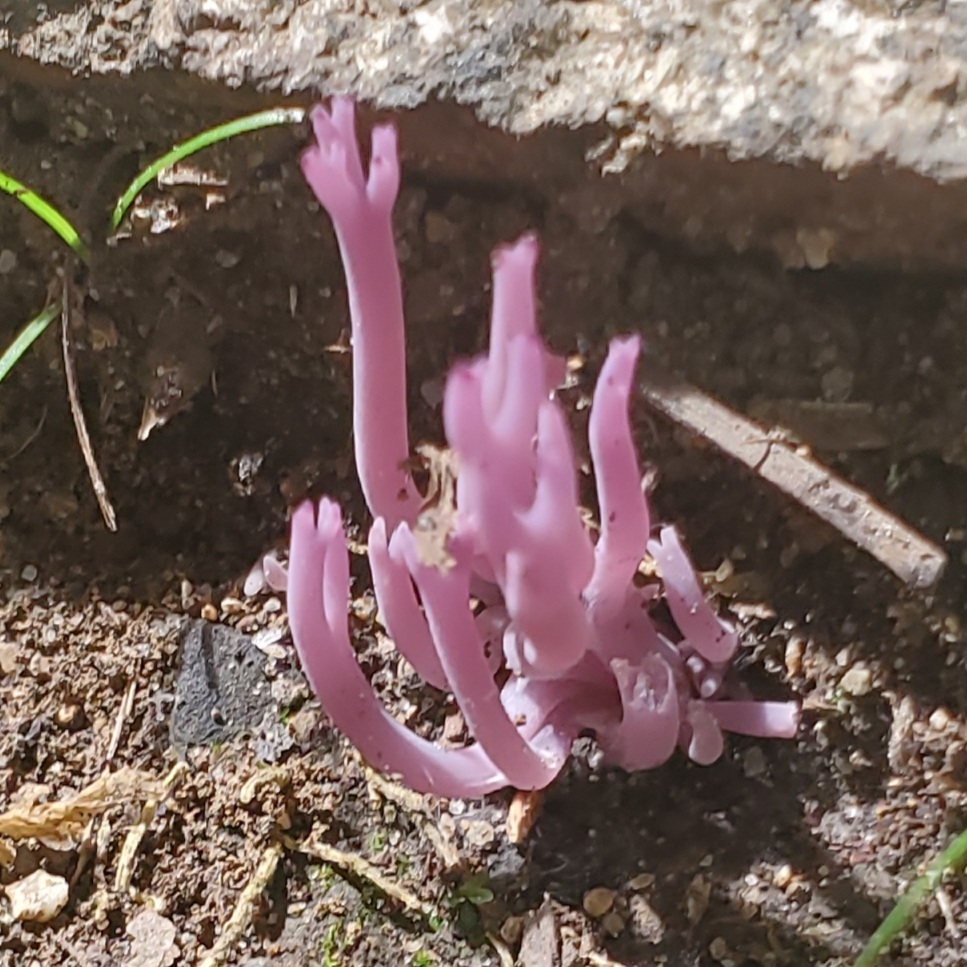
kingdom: Fungi
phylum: Basidiomycota
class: Agaricomycetes
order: Agaricales
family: Clavariaceae
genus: Clavaria
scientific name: Clavaria zollingeri
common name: Violet coral
